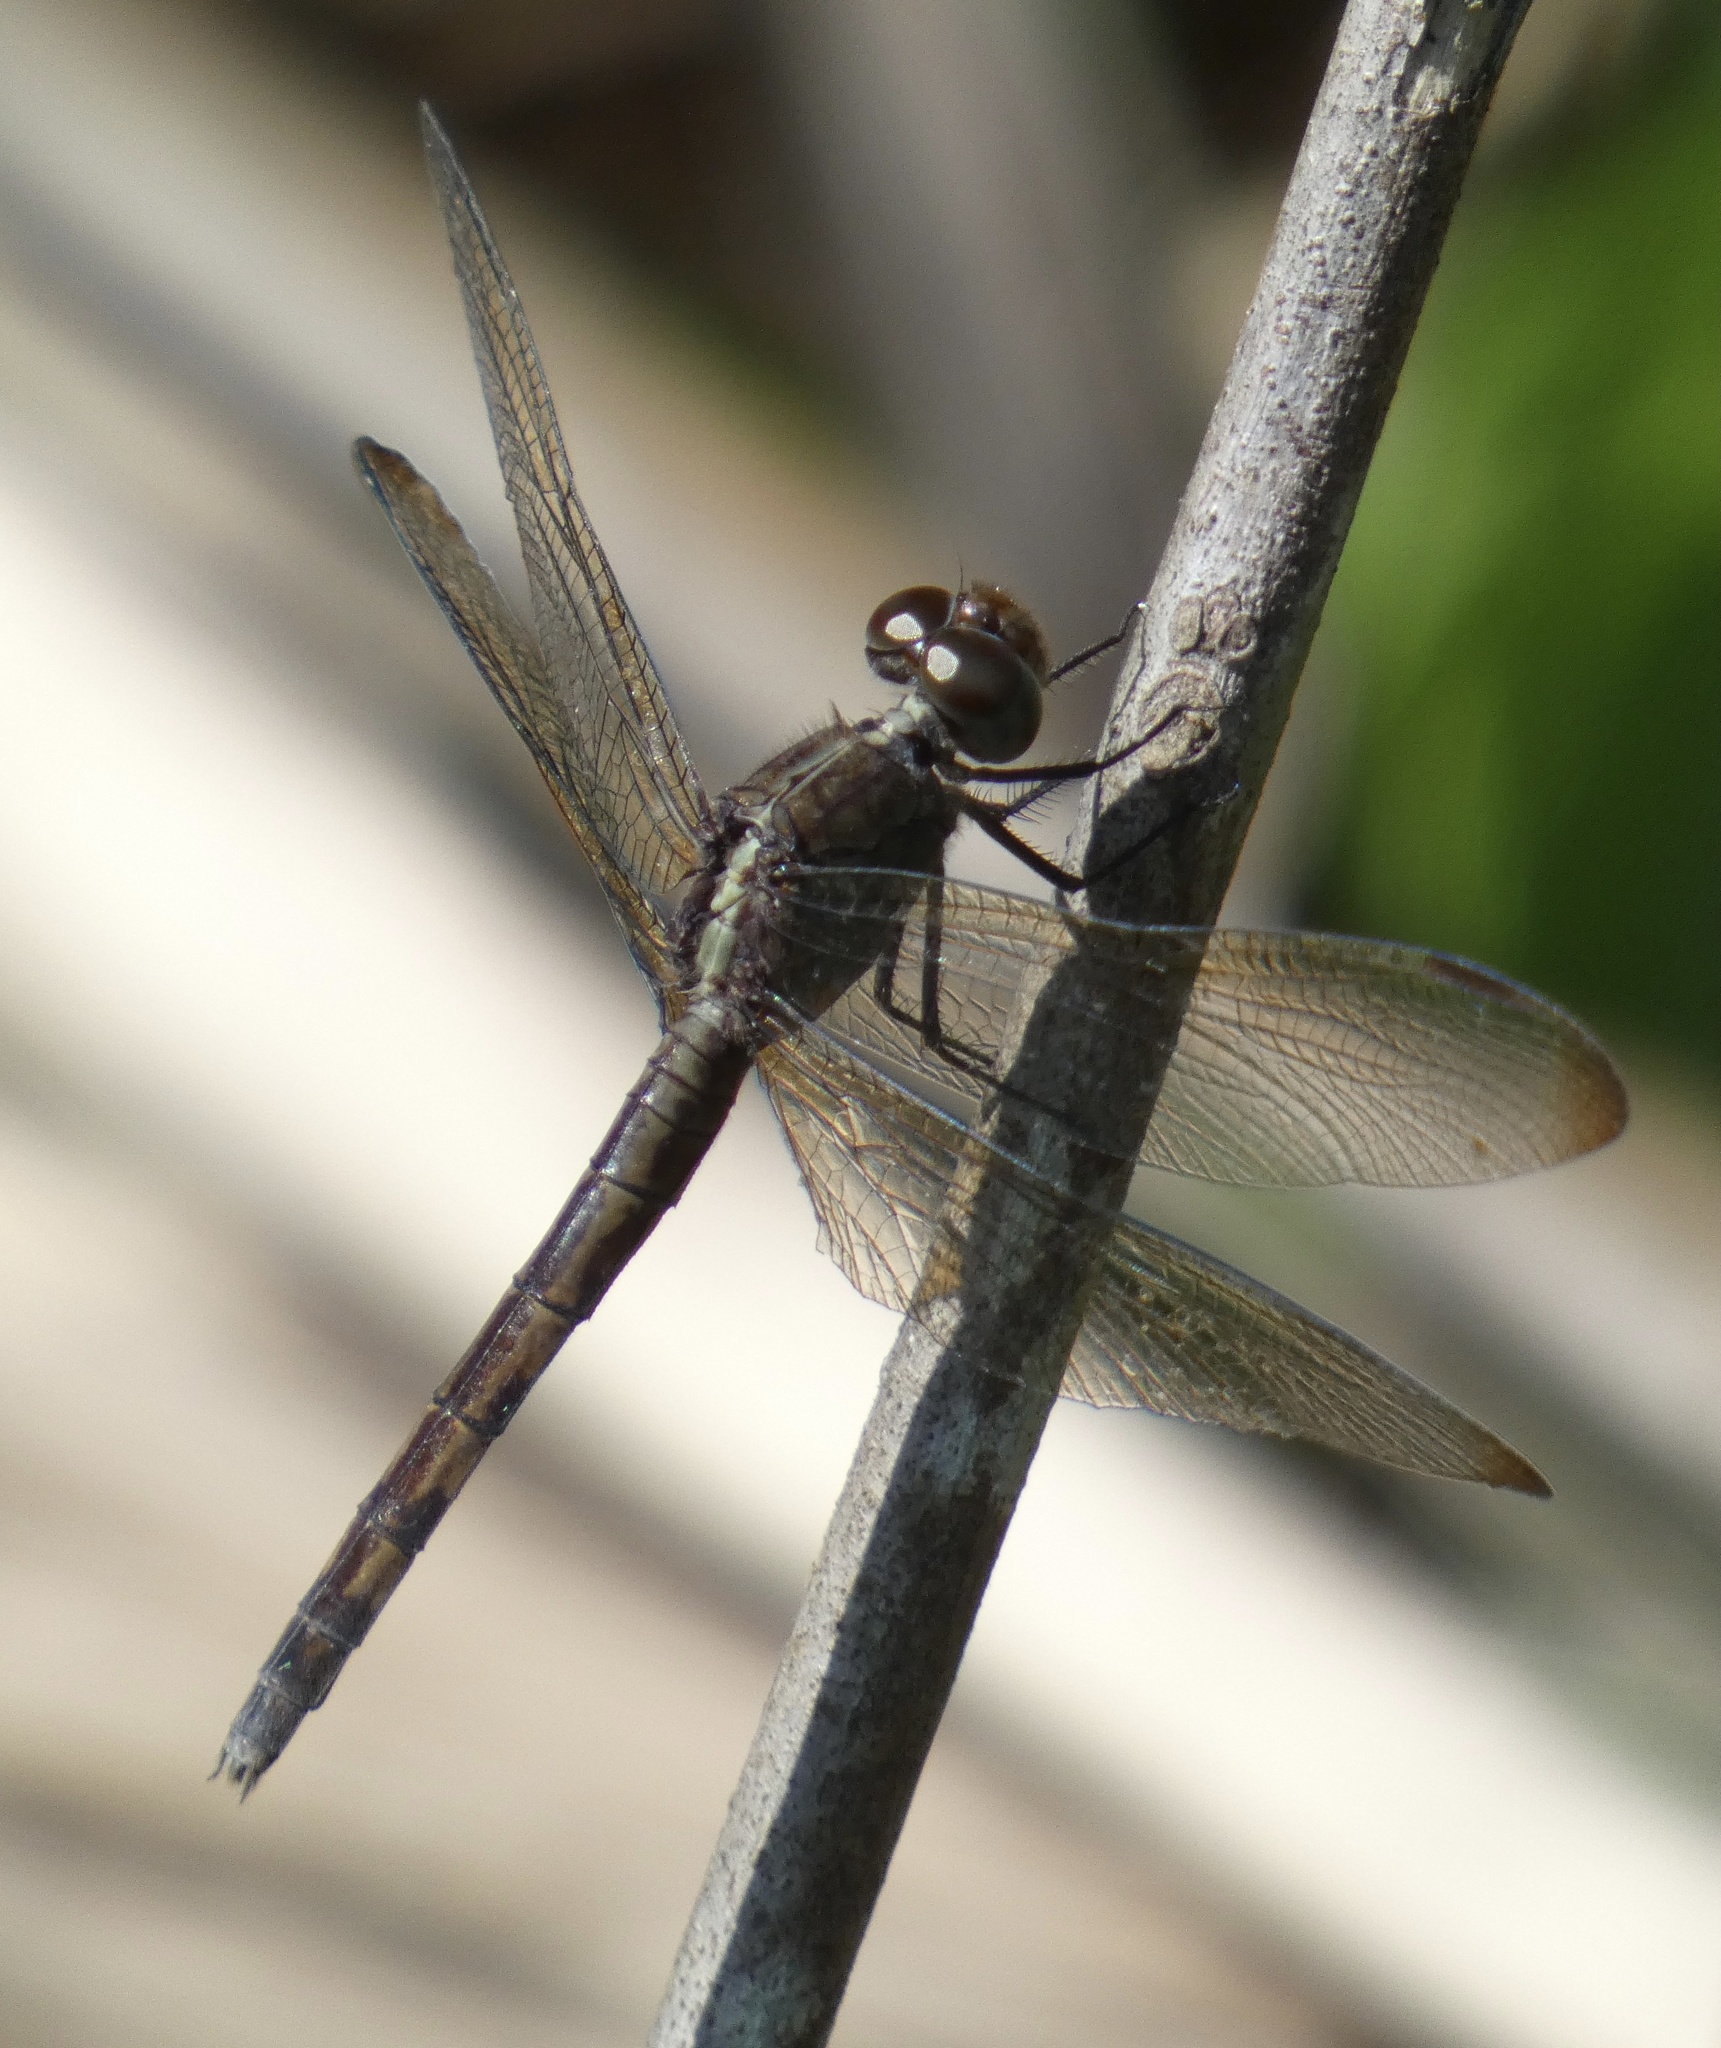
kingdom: Animalia
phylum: Arthropoda
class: Insecta
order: Odonata
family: Libellulidae
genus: Erythrodiplax
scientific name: Erythrodiplax umbrata
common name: Band-winged dragonlet
